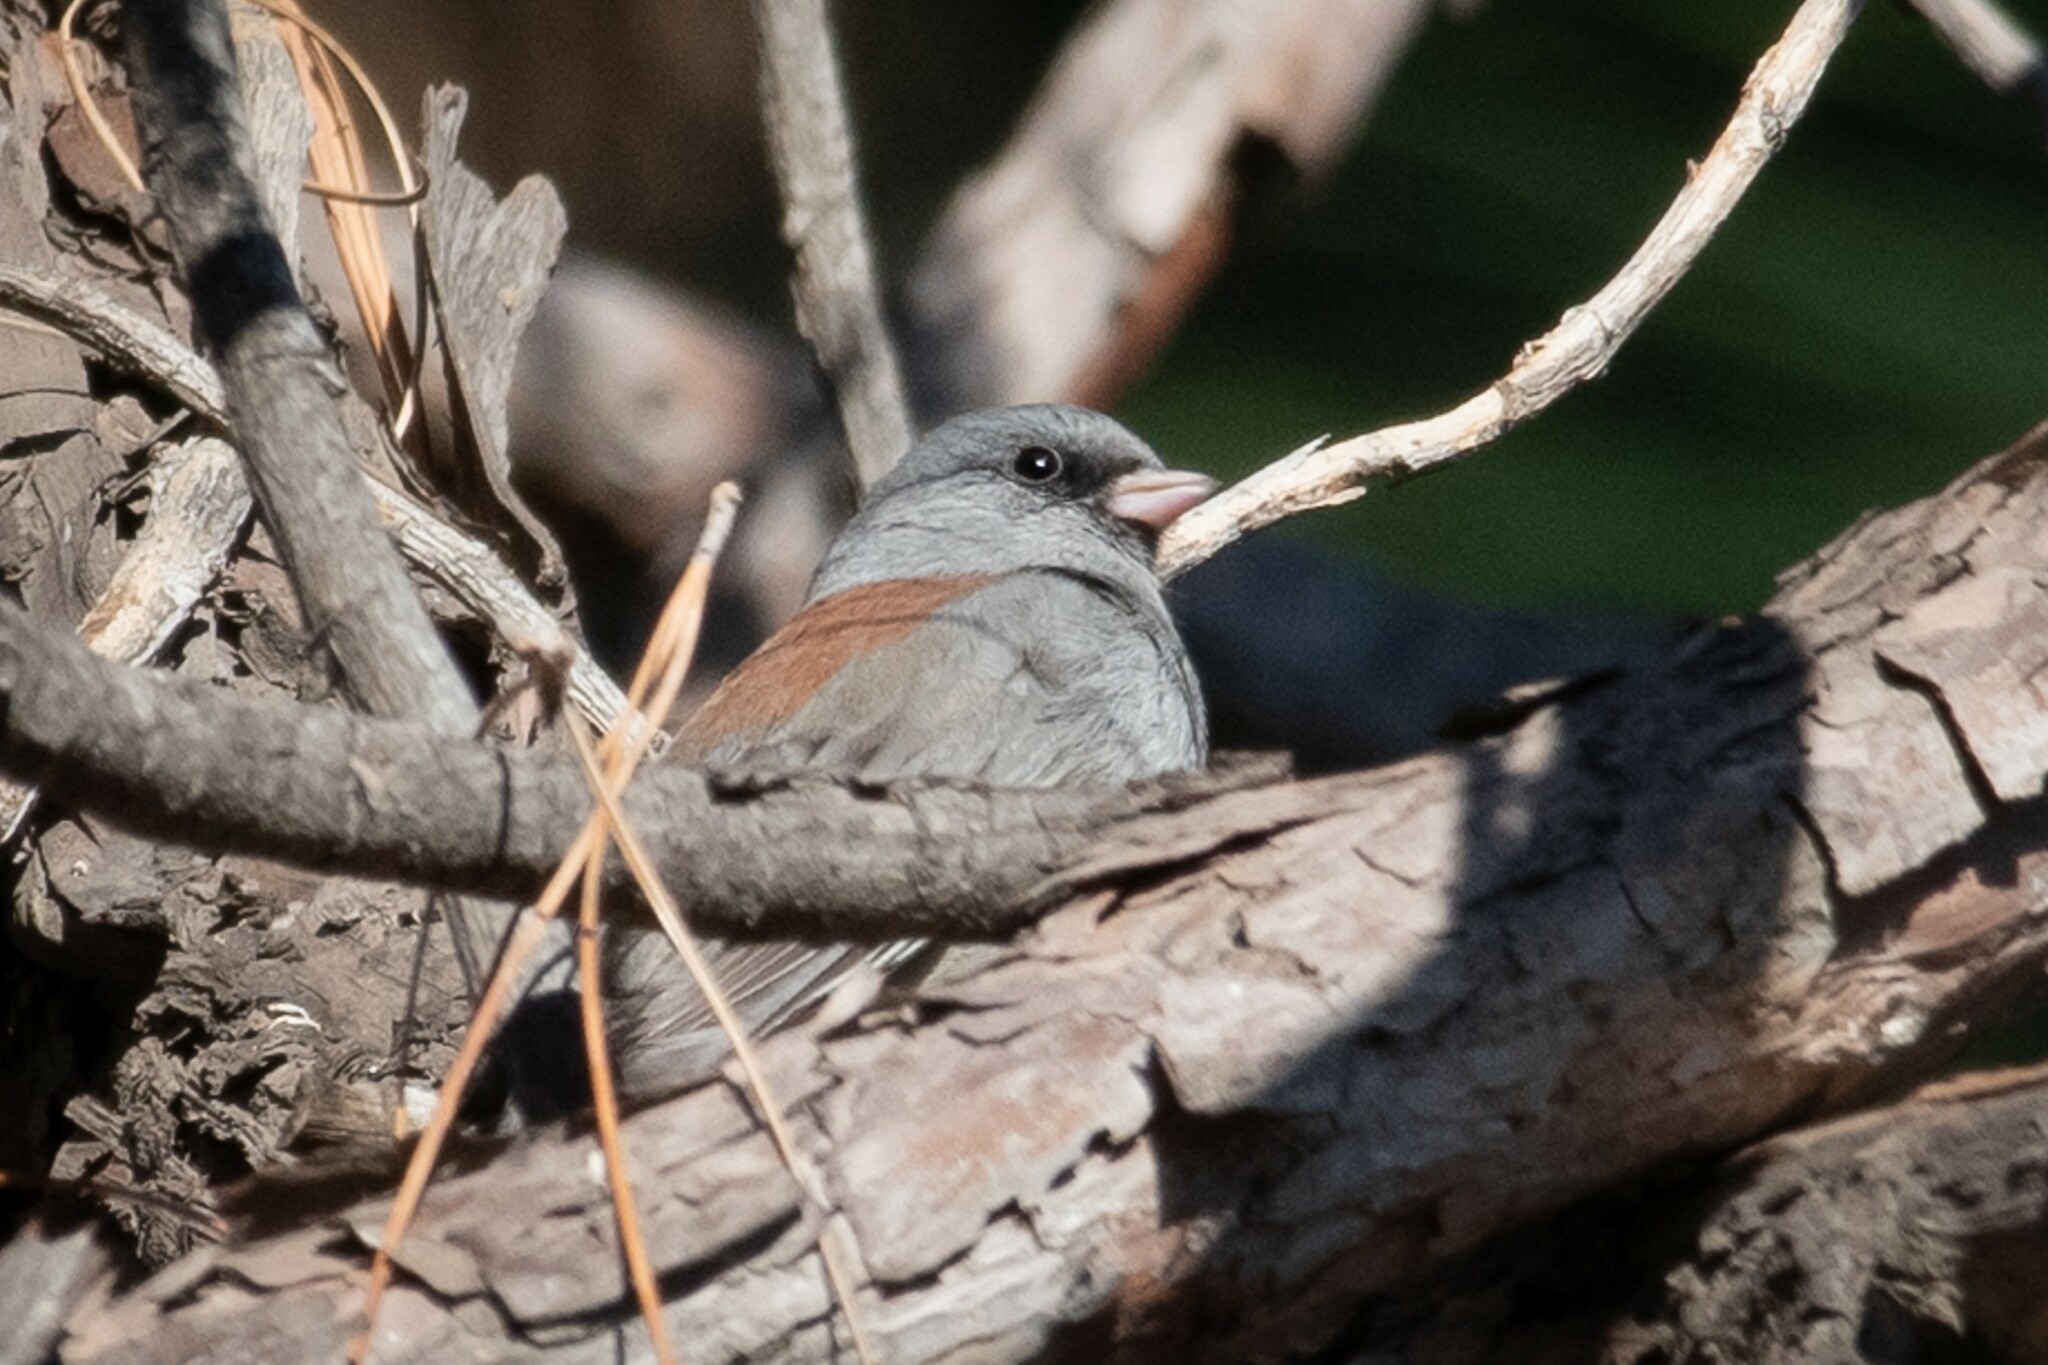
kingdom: Animalia
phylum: Chordata
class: Aves
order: Passeriformes
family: Passerellidae
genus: Junco
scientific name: Junco hyemalis
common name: Dark-eyed junco
